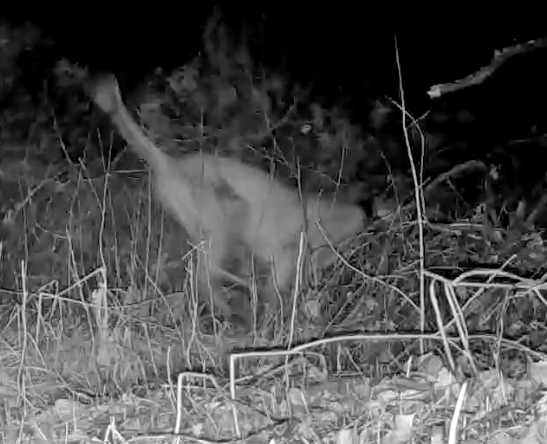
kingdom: Animalia
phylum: Chordata
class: Mammalia
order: Carnivora
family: Felidae
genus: Puma
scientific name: Puma concolor
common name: Puma
